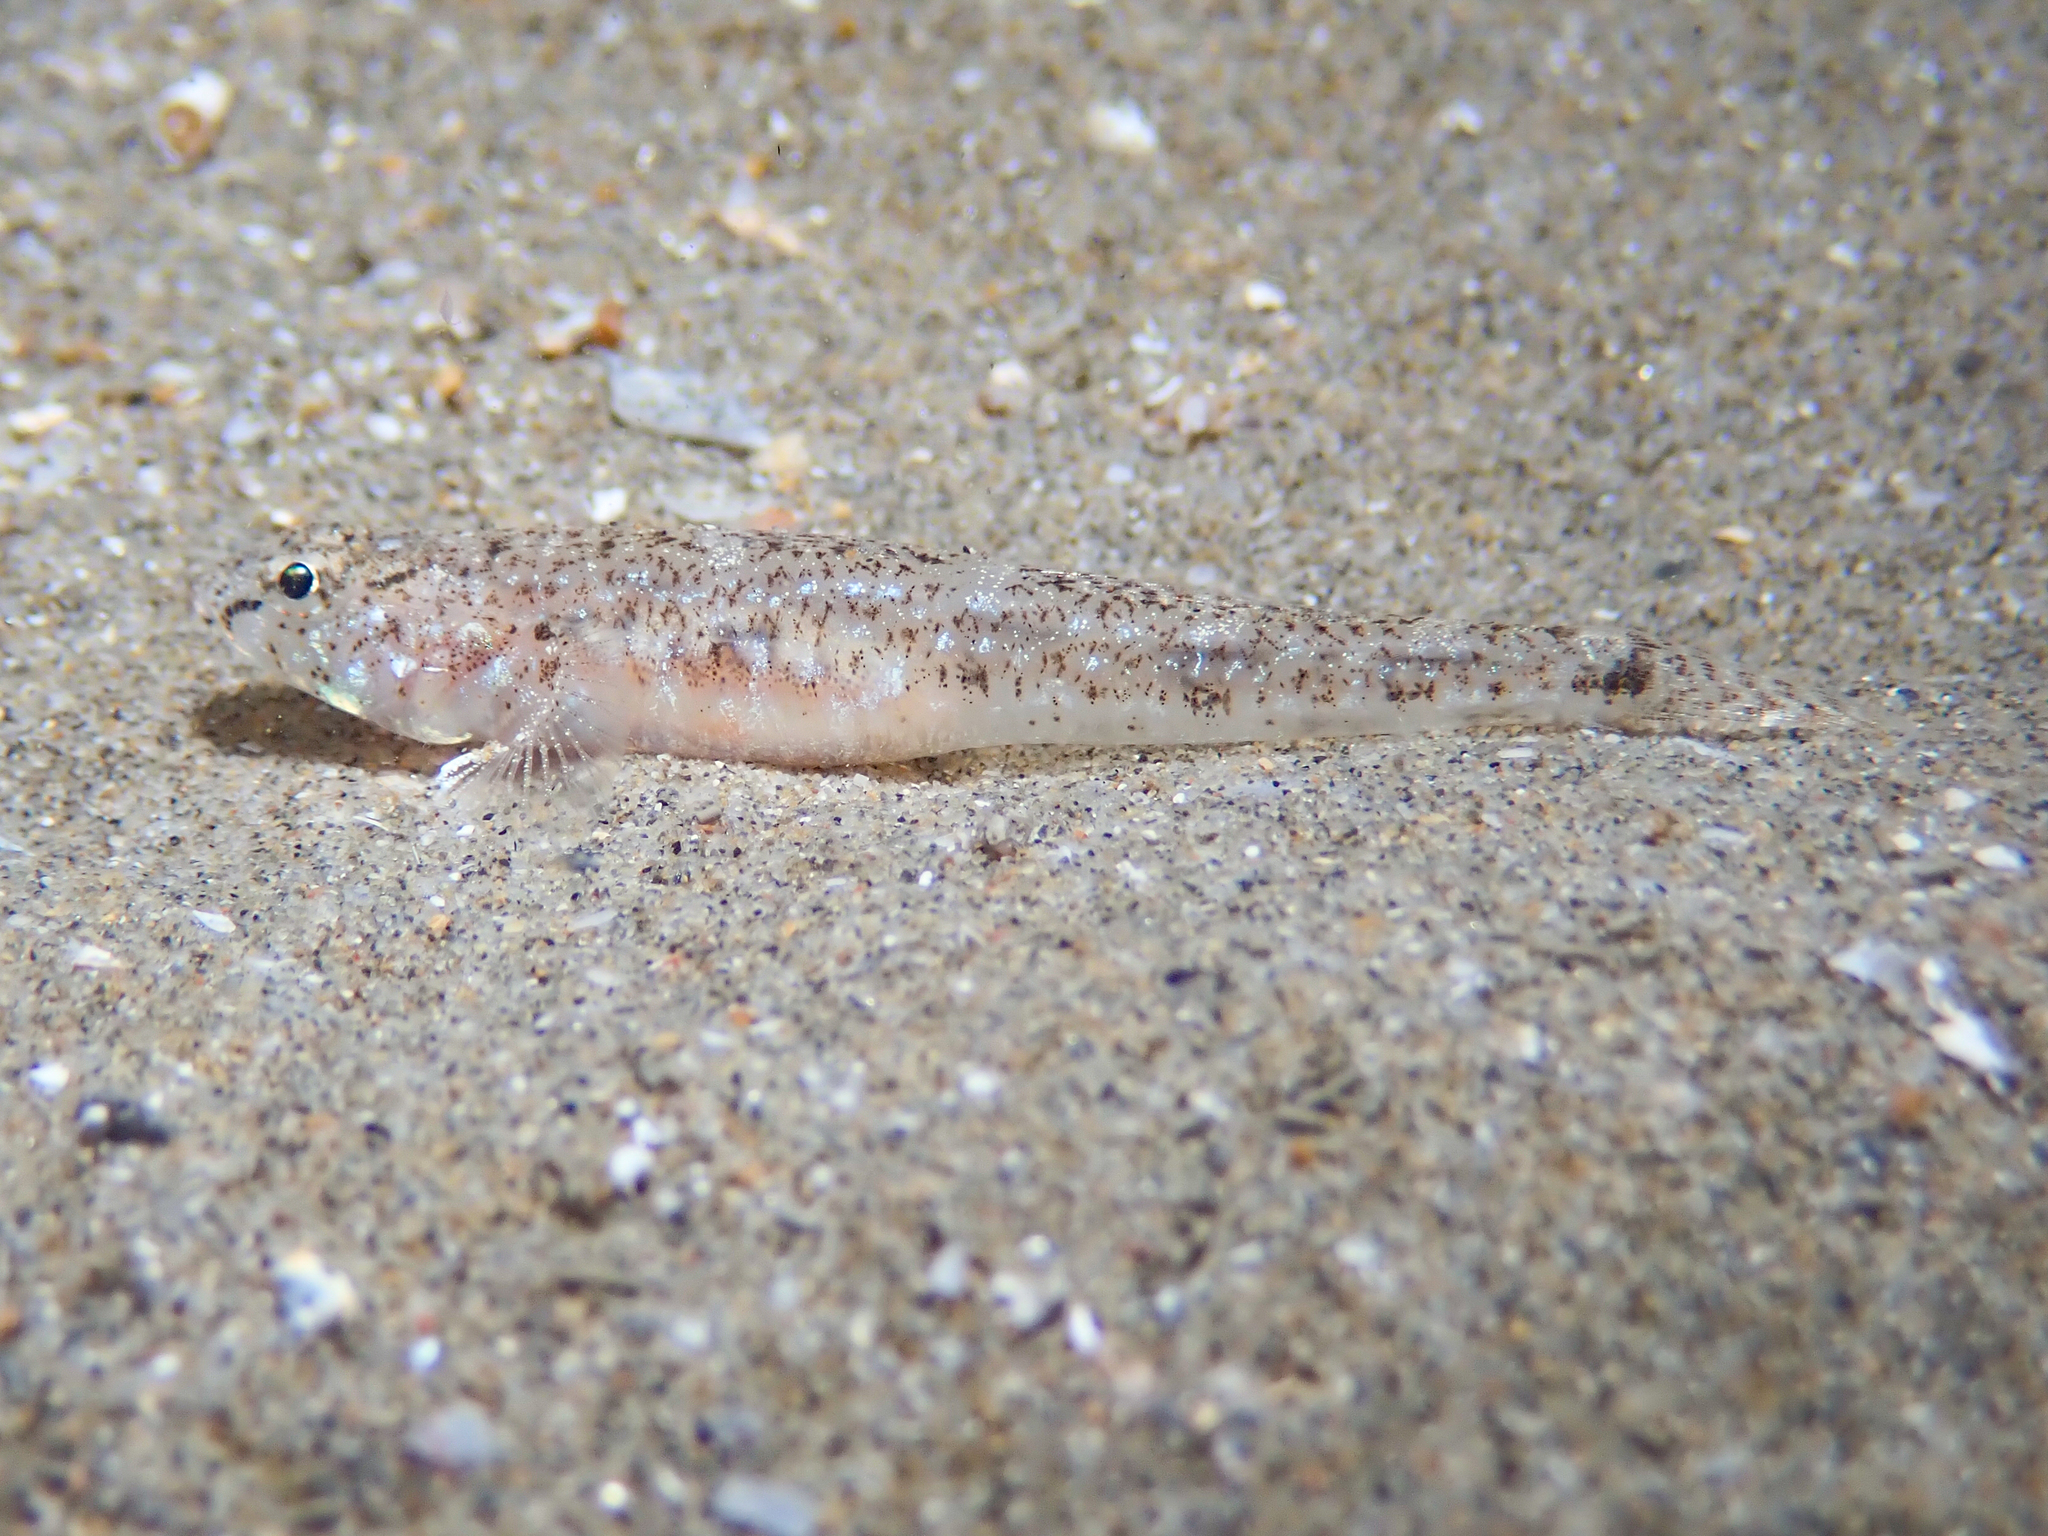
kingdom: Animalia
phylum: Chordata
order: Perciformes
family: Gobiidae
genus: Pomatoschistus
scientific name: Pomatoschistus marmoratus
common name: Marbled goby
